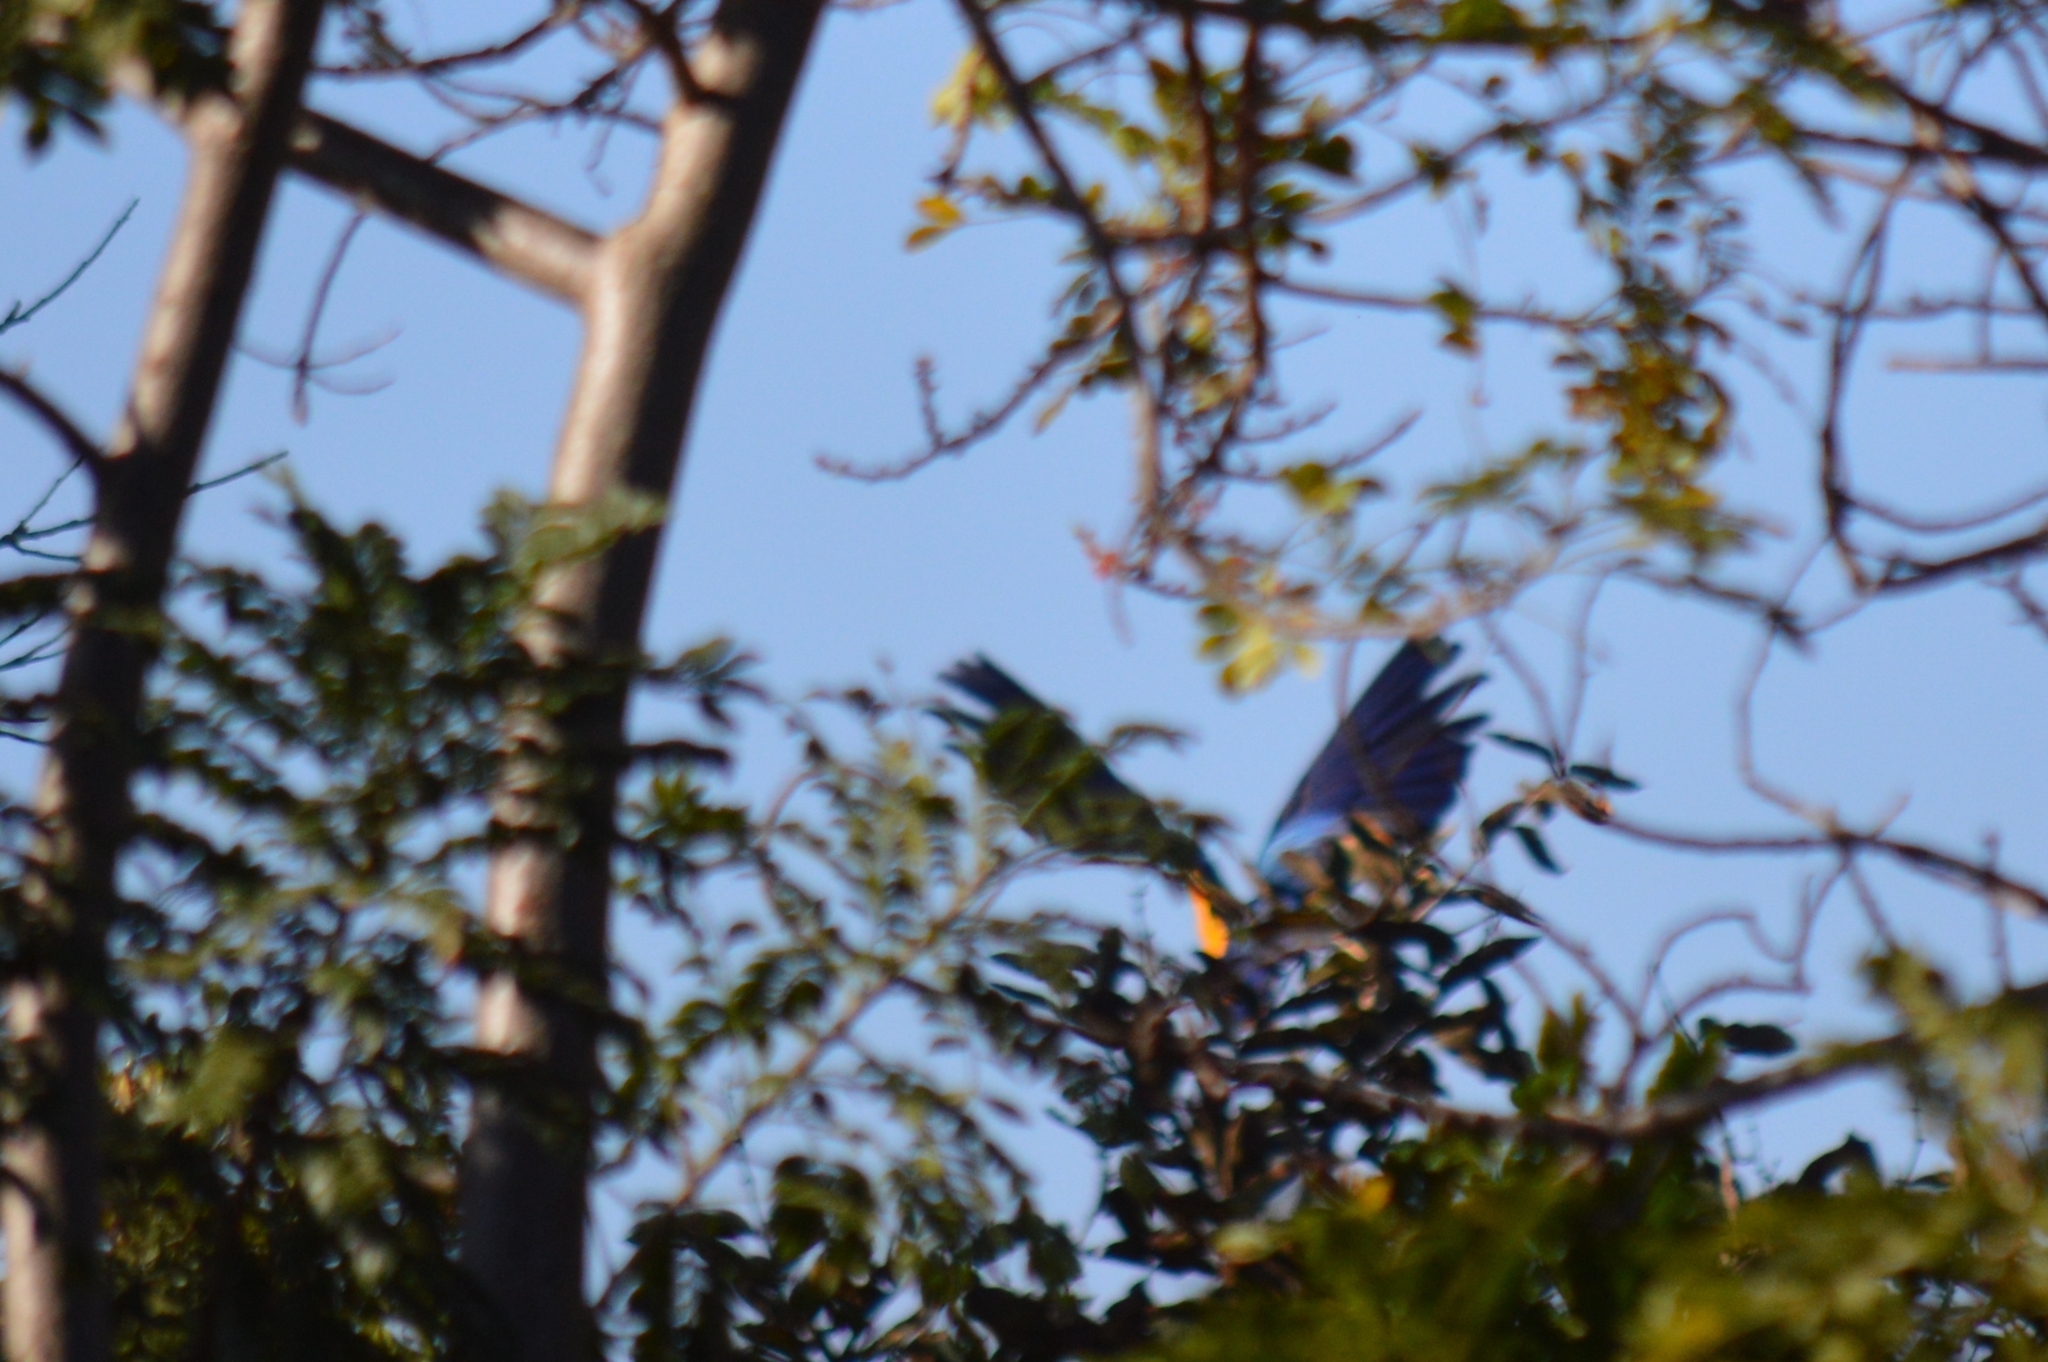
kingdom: Animalia
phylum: Chordata
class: Aves
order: Psittaciformes
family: Psittacidae
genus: Ara
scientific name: Ara ararauna
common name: Blue-and-yellow macaw
